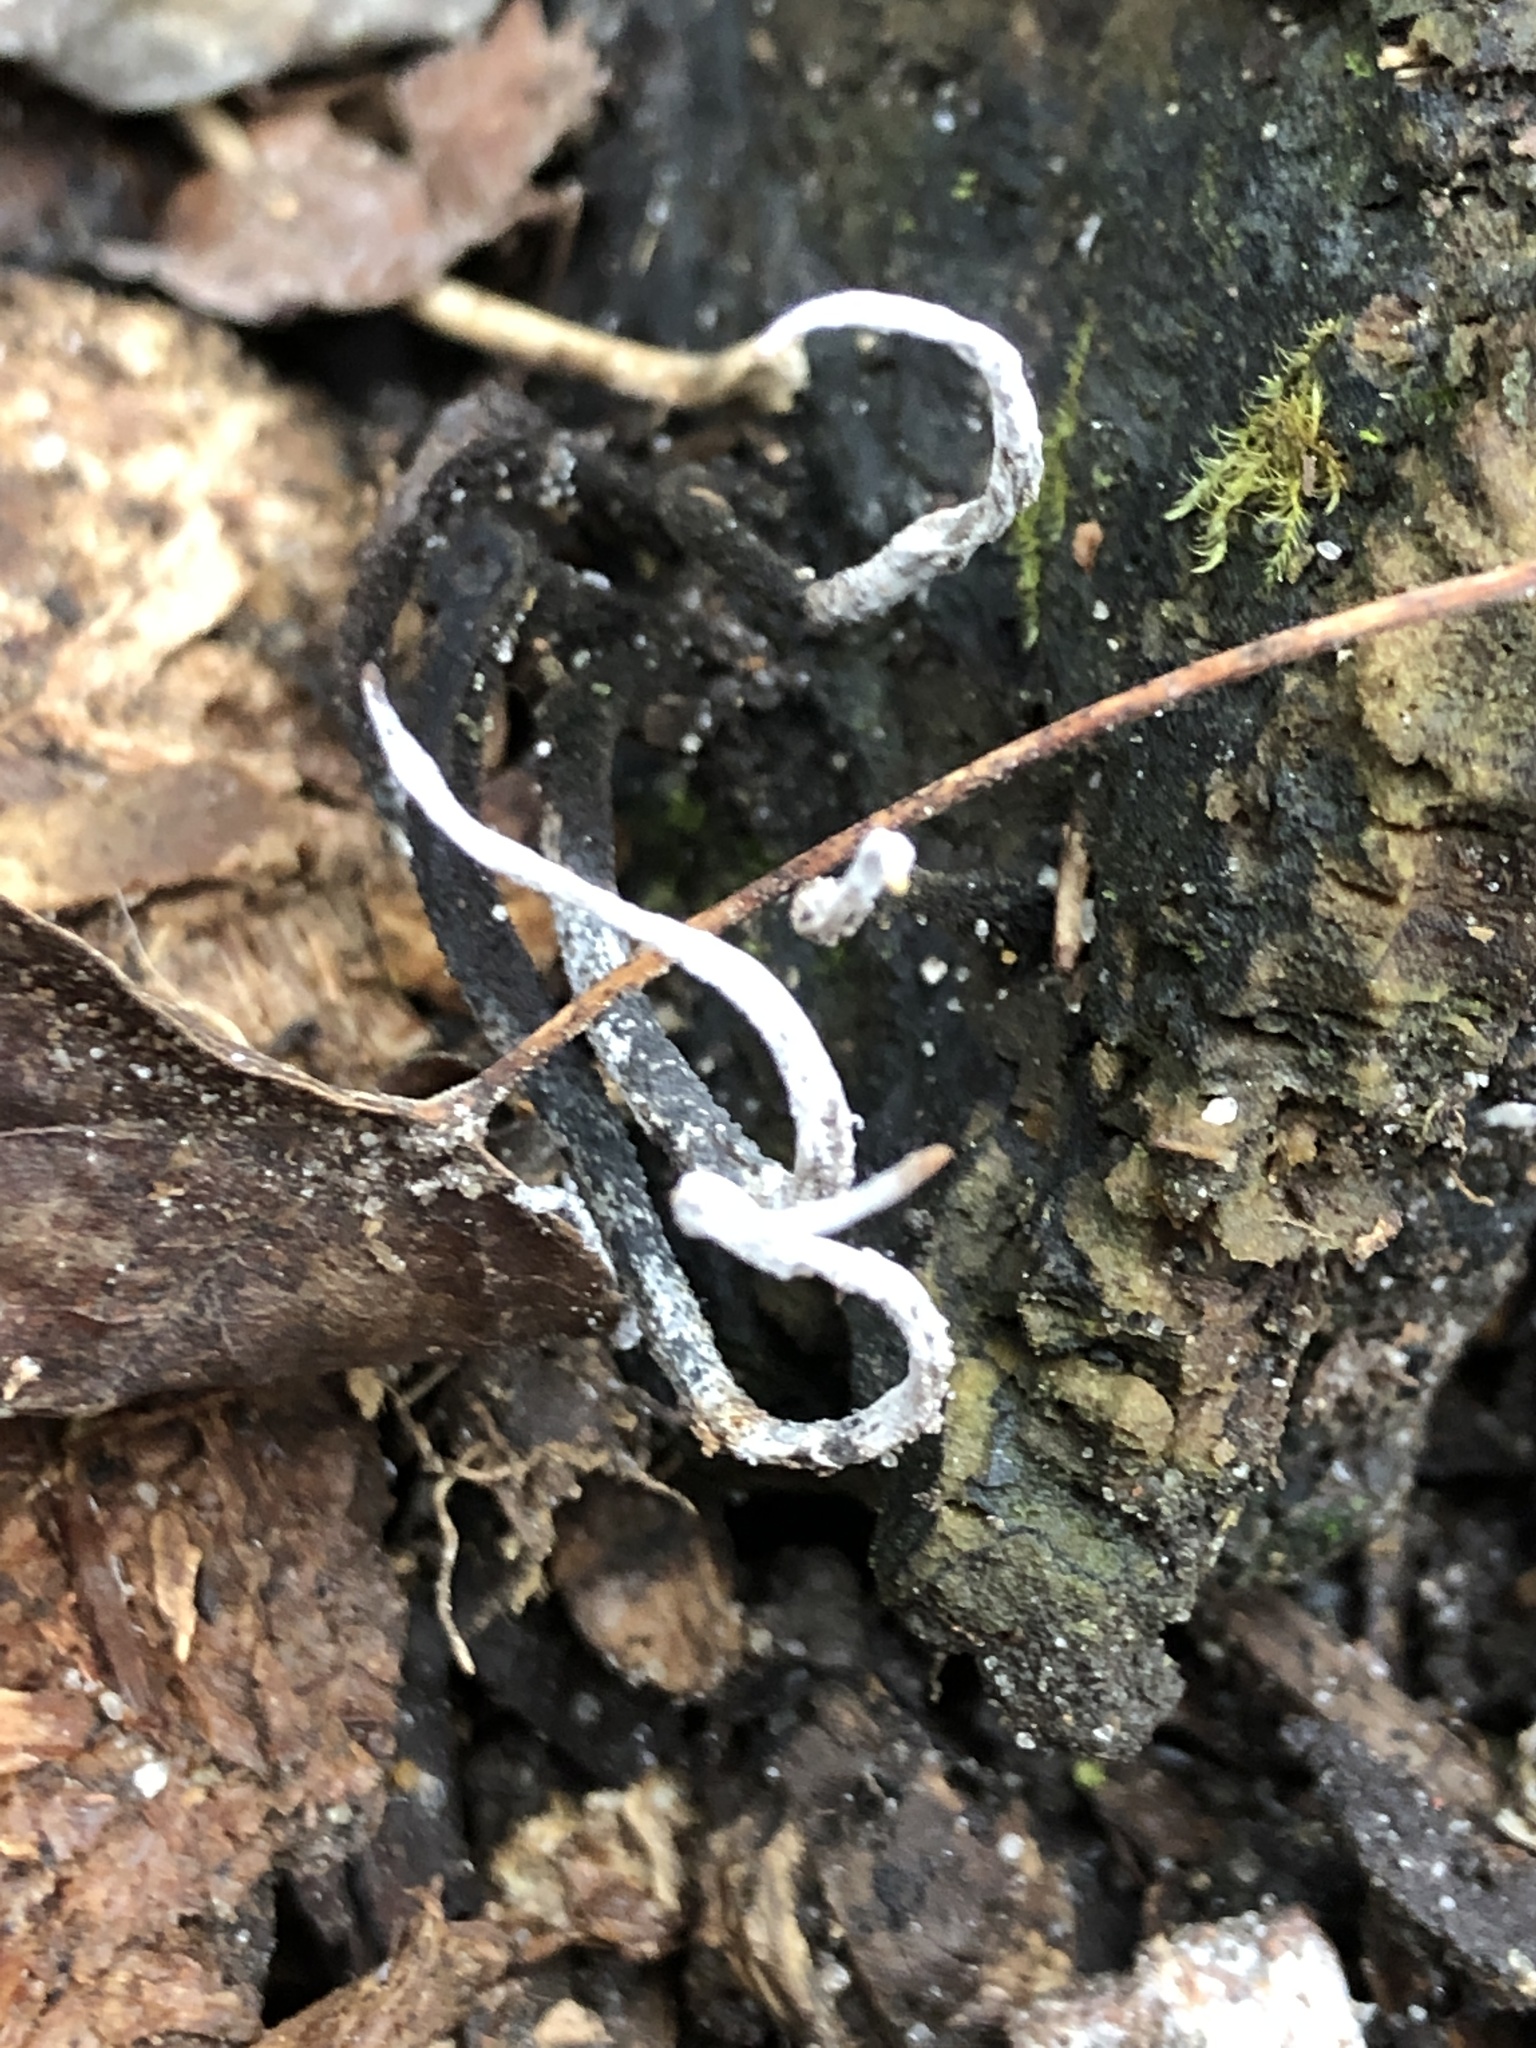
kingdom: Fungi
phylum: Ascomycota
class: Sordariomycetes
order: Xylariales
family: Xylariaceae
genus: Xylaria
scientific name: Xylaria hypoxylon
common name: Candle-snuff fungus
